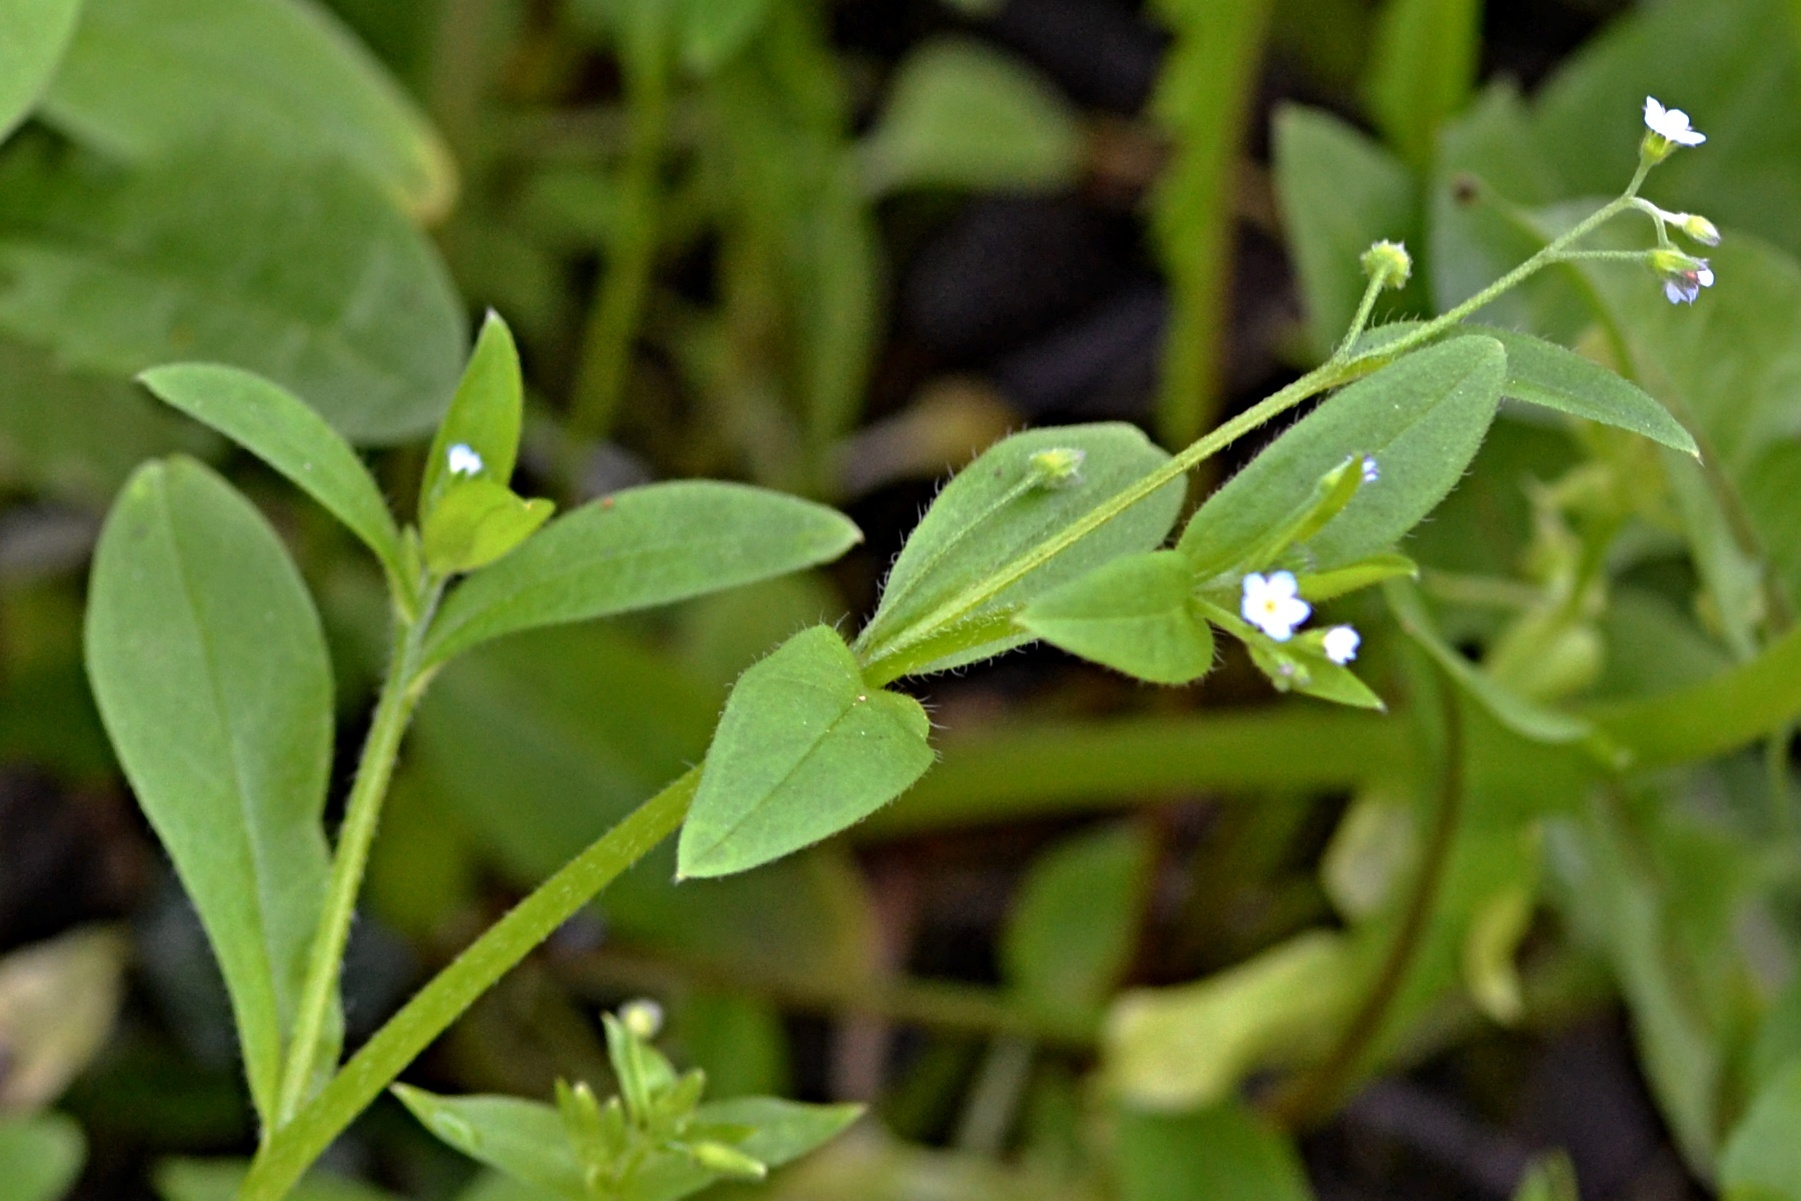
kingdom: Plantae
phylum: Tracheophyta
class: Magnoliopsida
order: Boraginales
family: Boraginaceae
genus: Myosotis
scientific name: Myosotis sparsiflora
